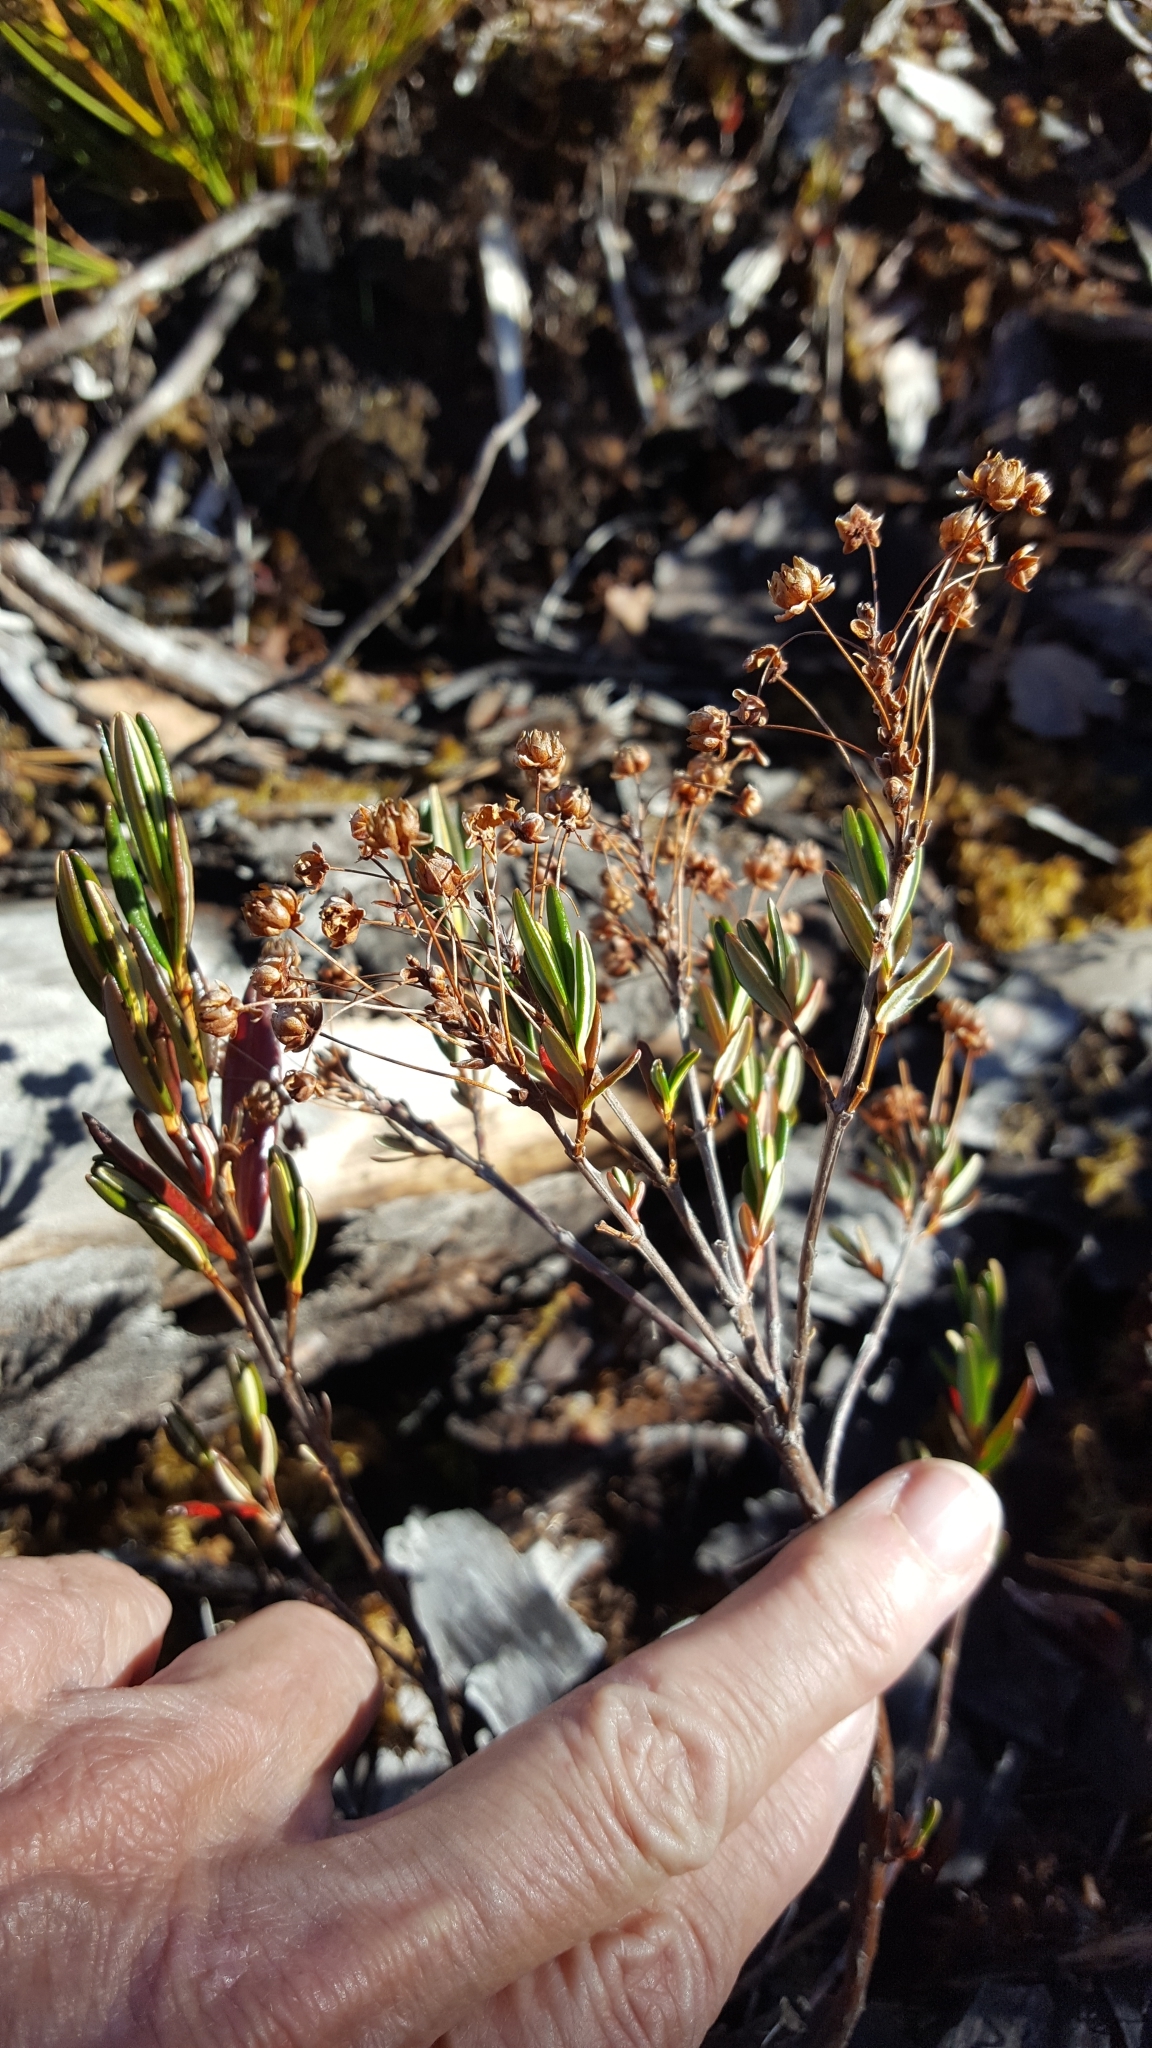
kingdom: Plantae
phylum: Tracheophyta
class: Magnoliopsida
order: Ericales
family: Ericaceae
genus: Kalmia
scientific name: Kalmia polifolia
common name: Bog-laurel
